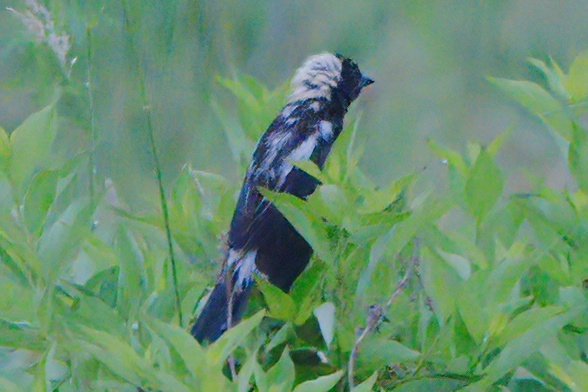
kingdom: Animalia
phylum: Chordata
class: Aves
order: Passeriformes
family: Icteridae
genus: Dolichonyx
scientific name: Dolichonyx oryzivorus
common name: Bobolink
